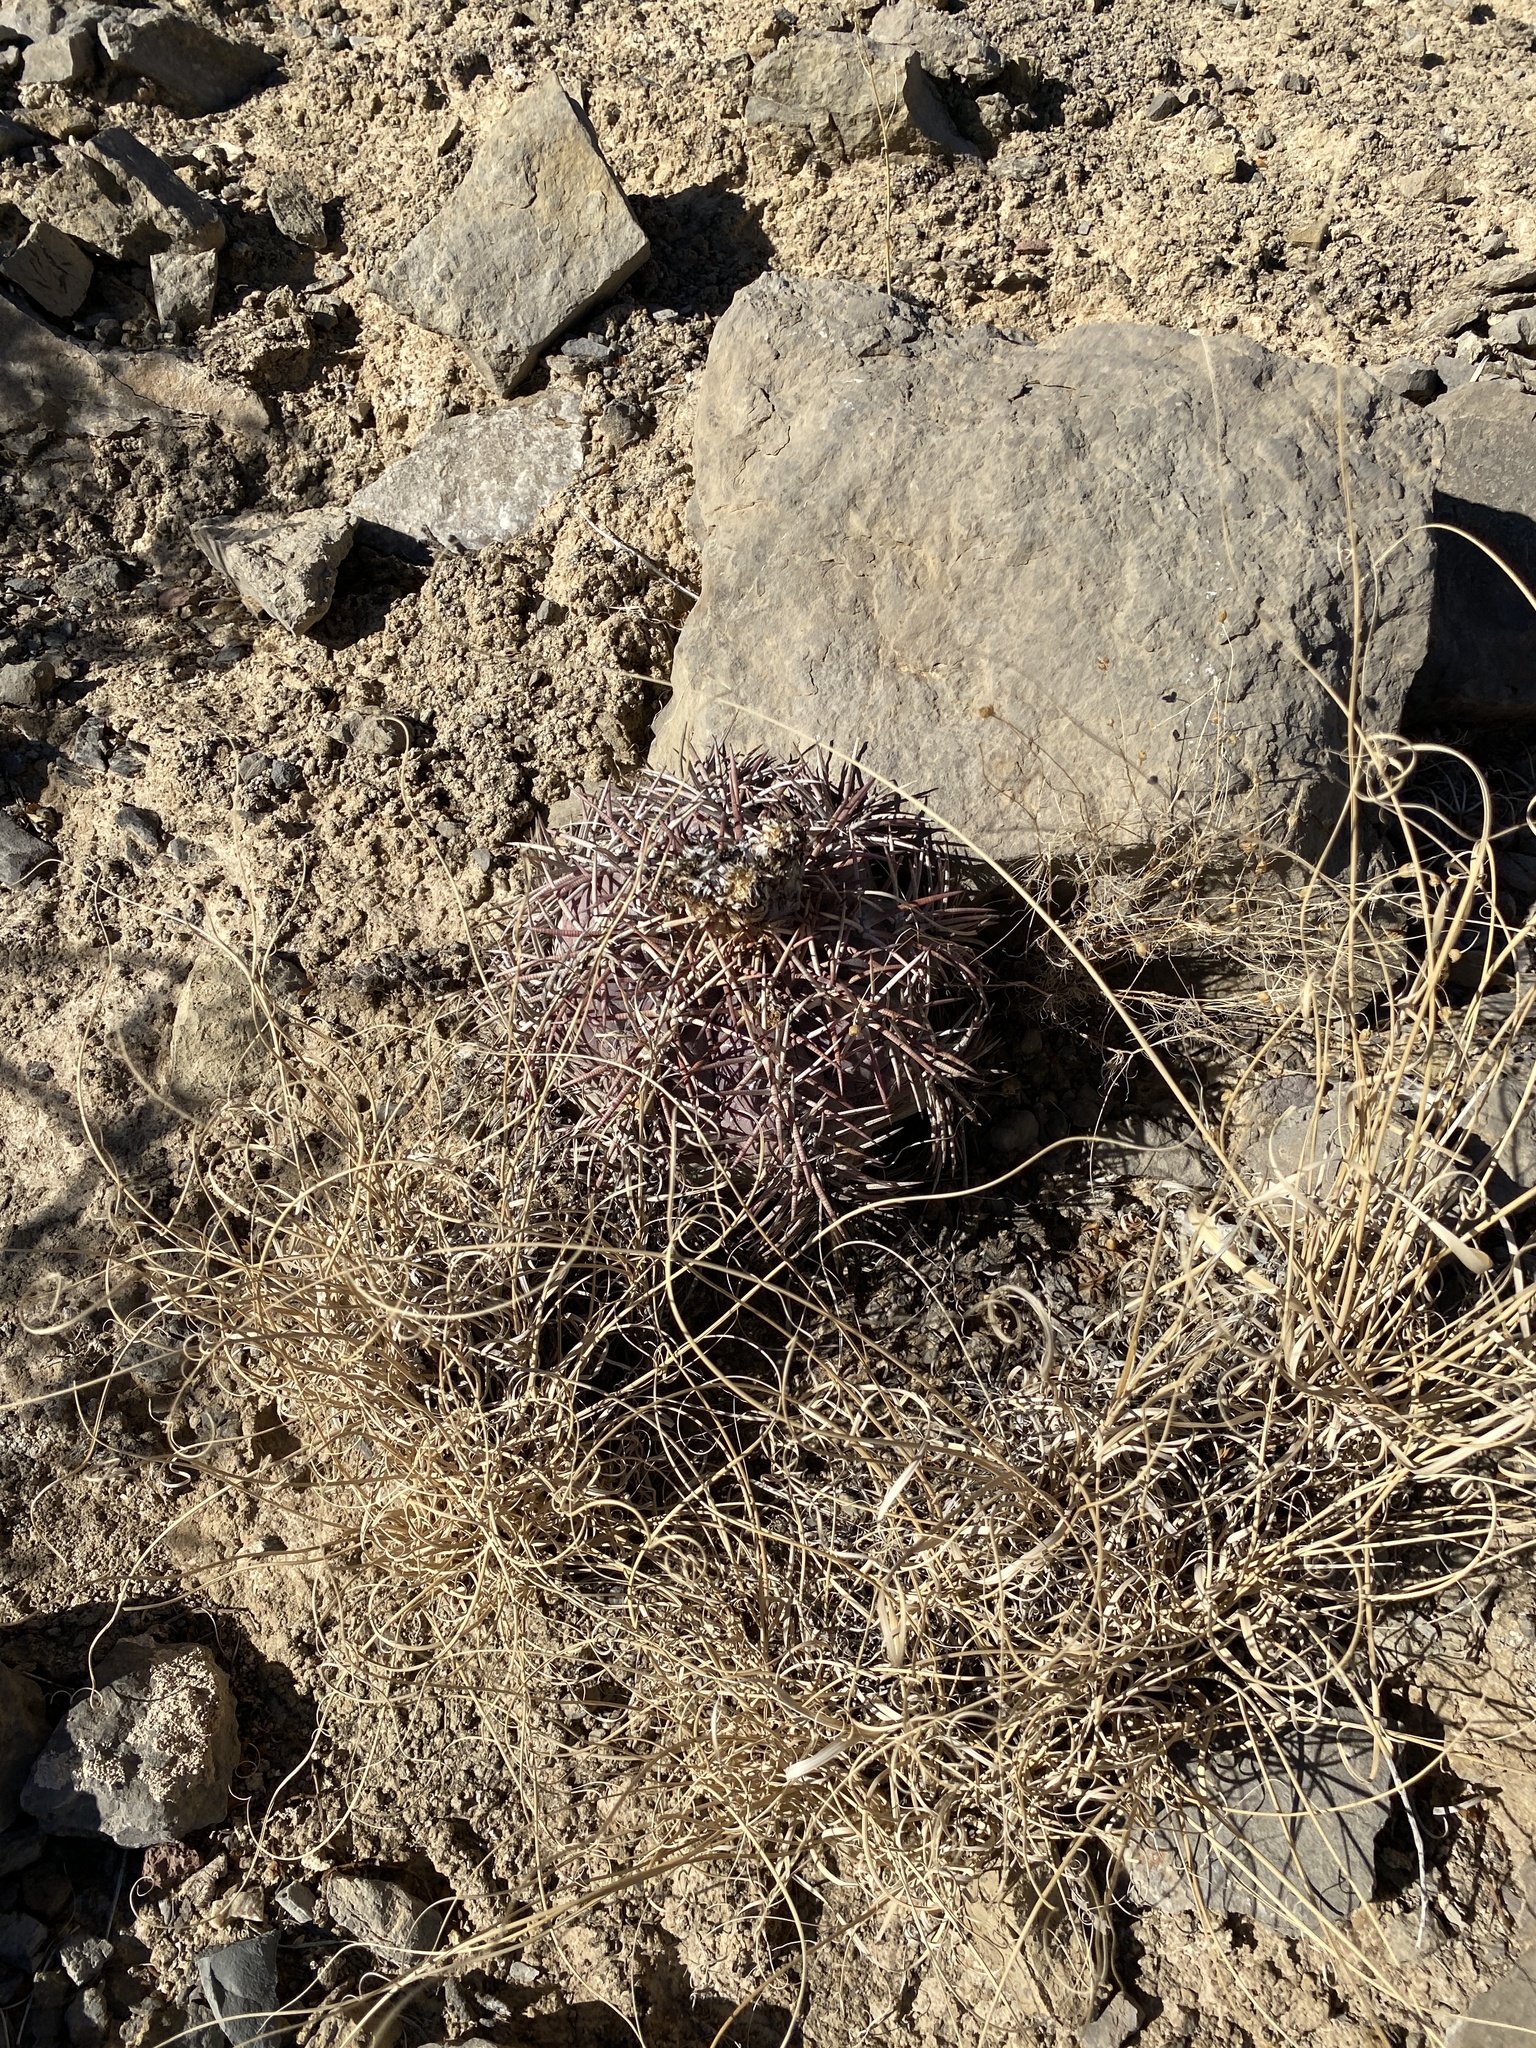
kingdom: Plantae
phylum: Tracheophyta
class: Magnoliopsida
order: Caryophyllales
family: Cactaceae
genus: Echinocactus
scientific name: Echinocactus horizonthalonius
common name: Devilshead
